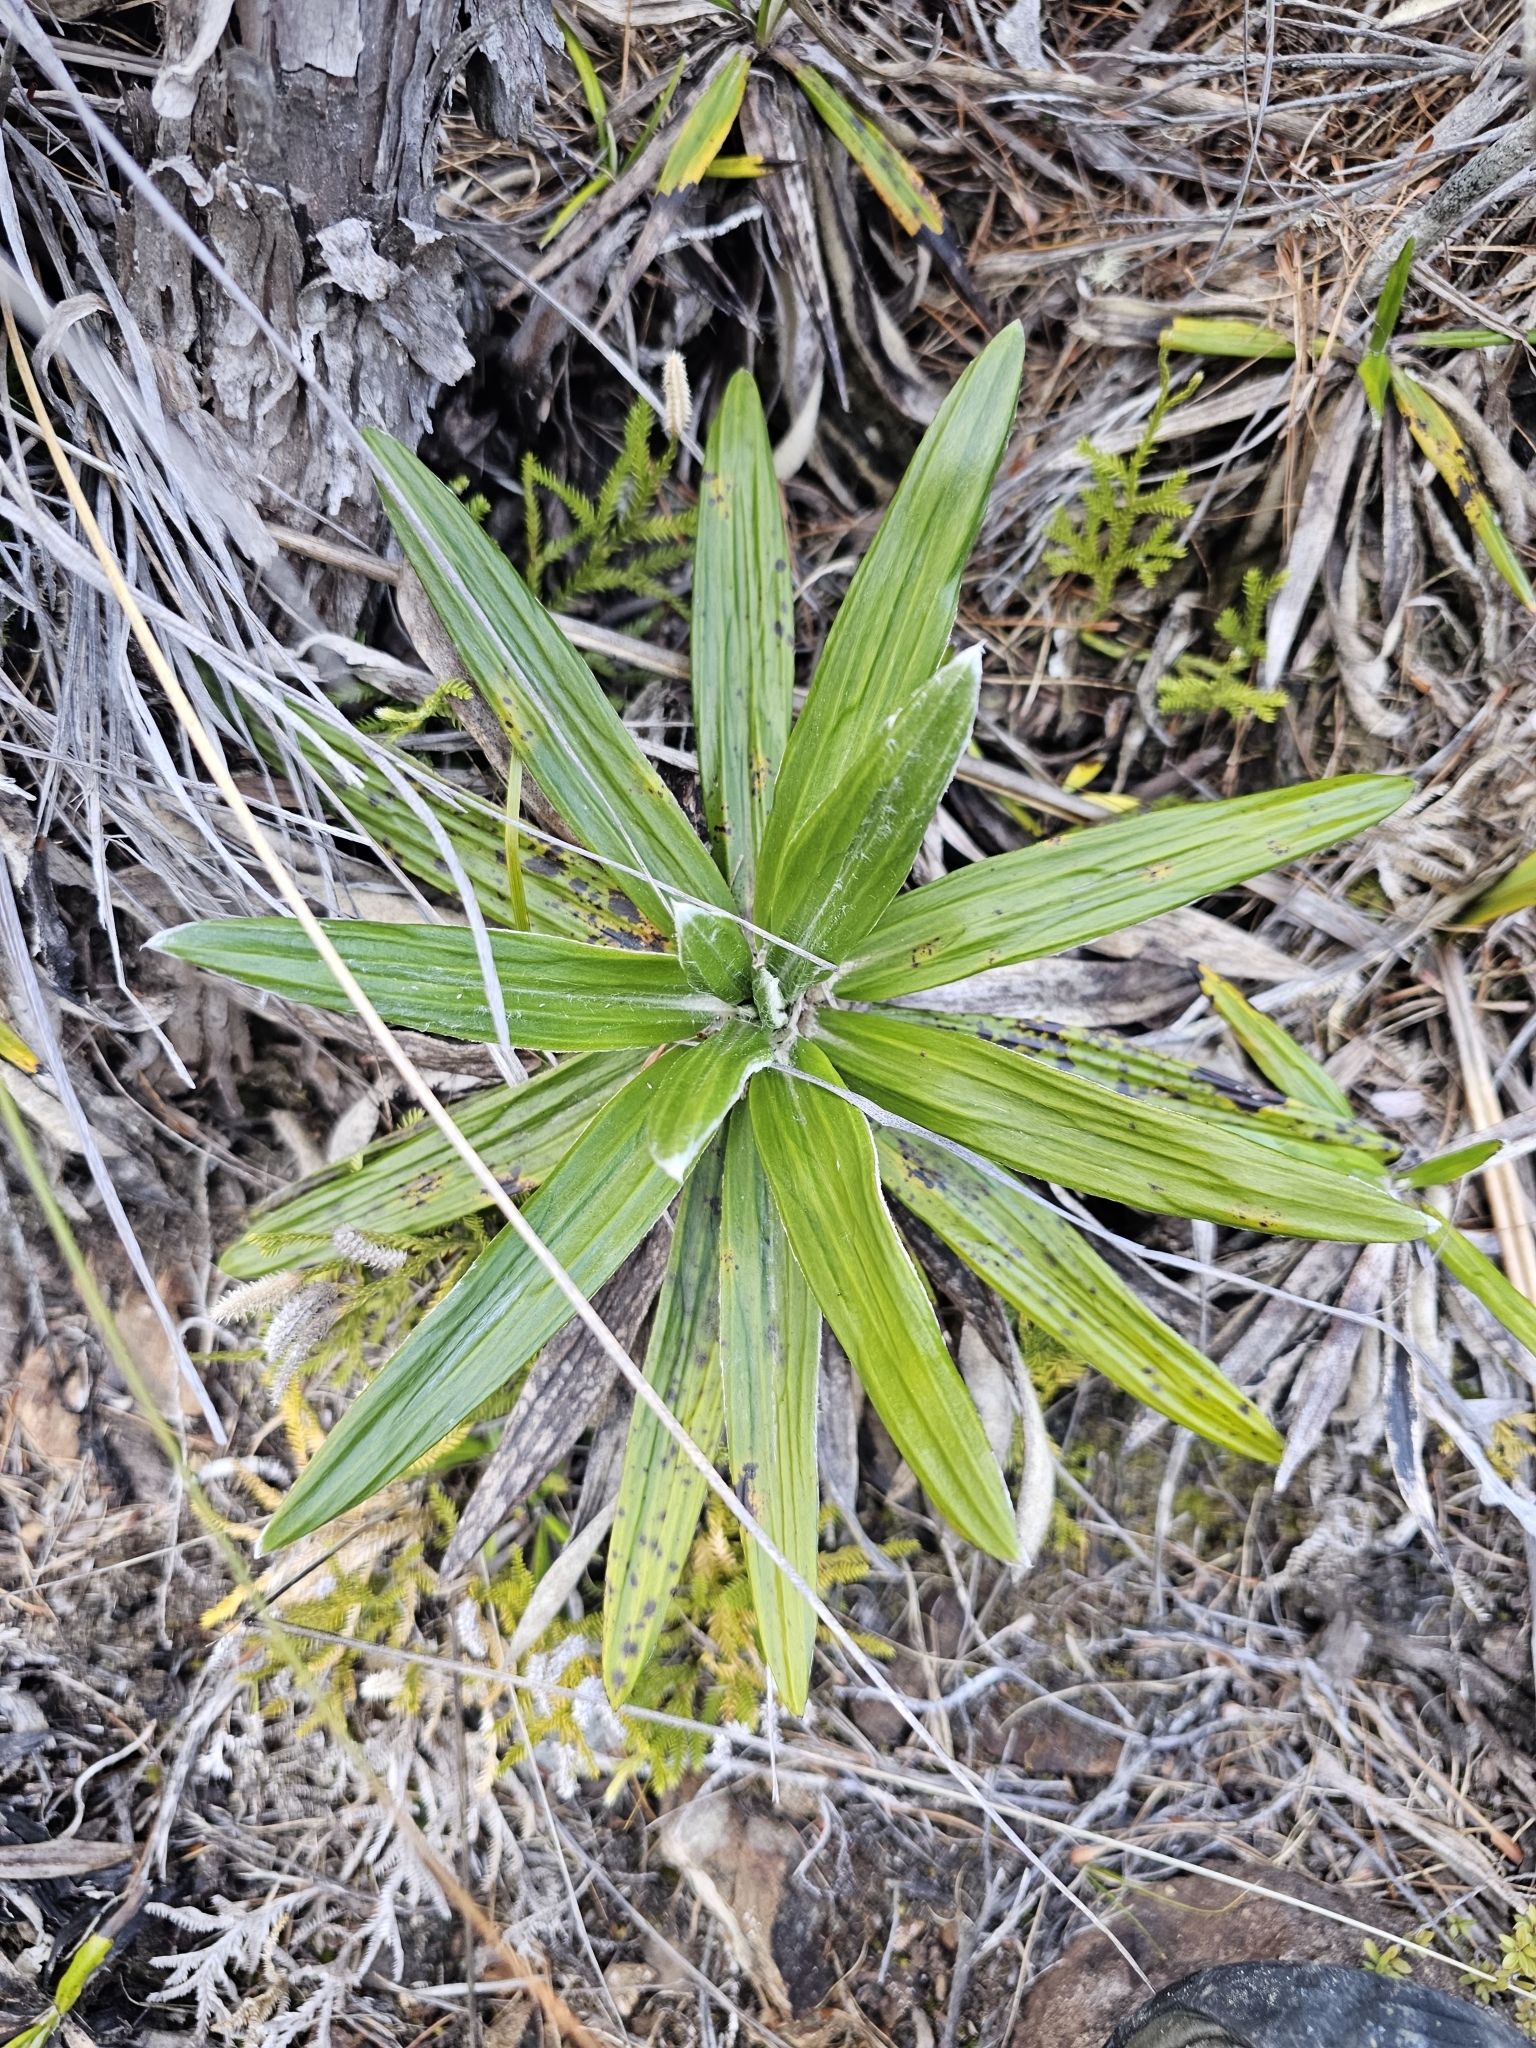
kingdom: Plantae
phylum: Tracheophyta
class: Magnoliopsida
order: Asterales
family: Asteraceae
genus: Celmisia
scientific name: Celmisia spectabilis
